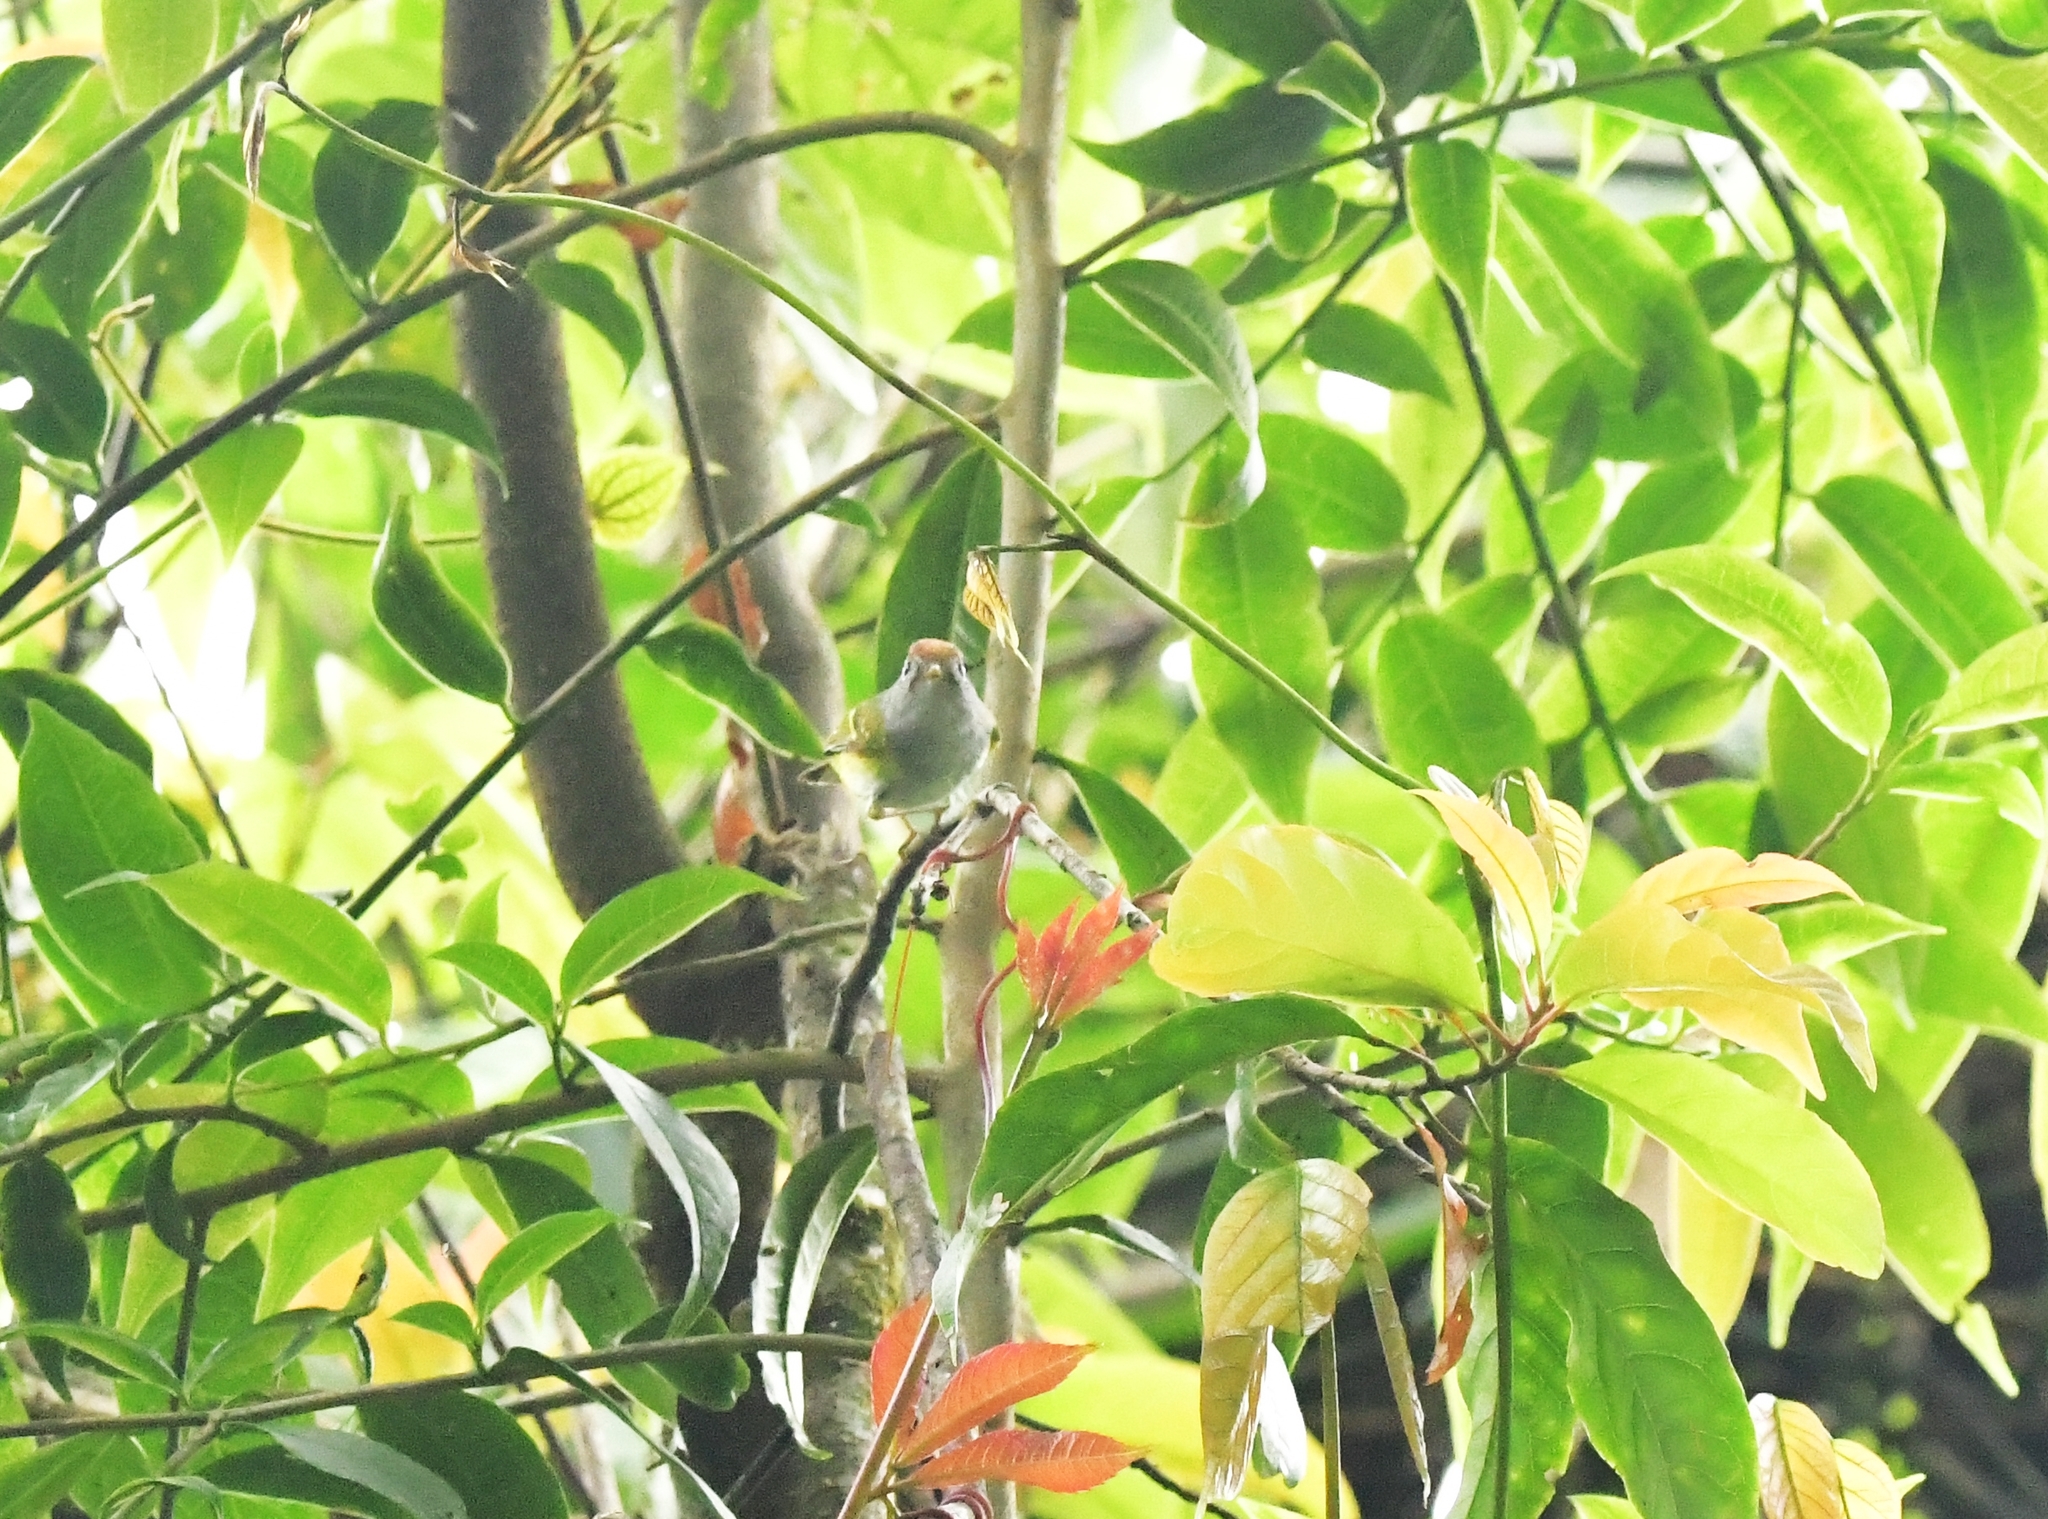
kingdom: Animalia
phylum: Chordata
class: Aves
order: Passeriformes
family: Phylloscopidae
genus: Seicercus
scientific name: Seicercus castaniceps
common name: Chestnut-crowned warbler
